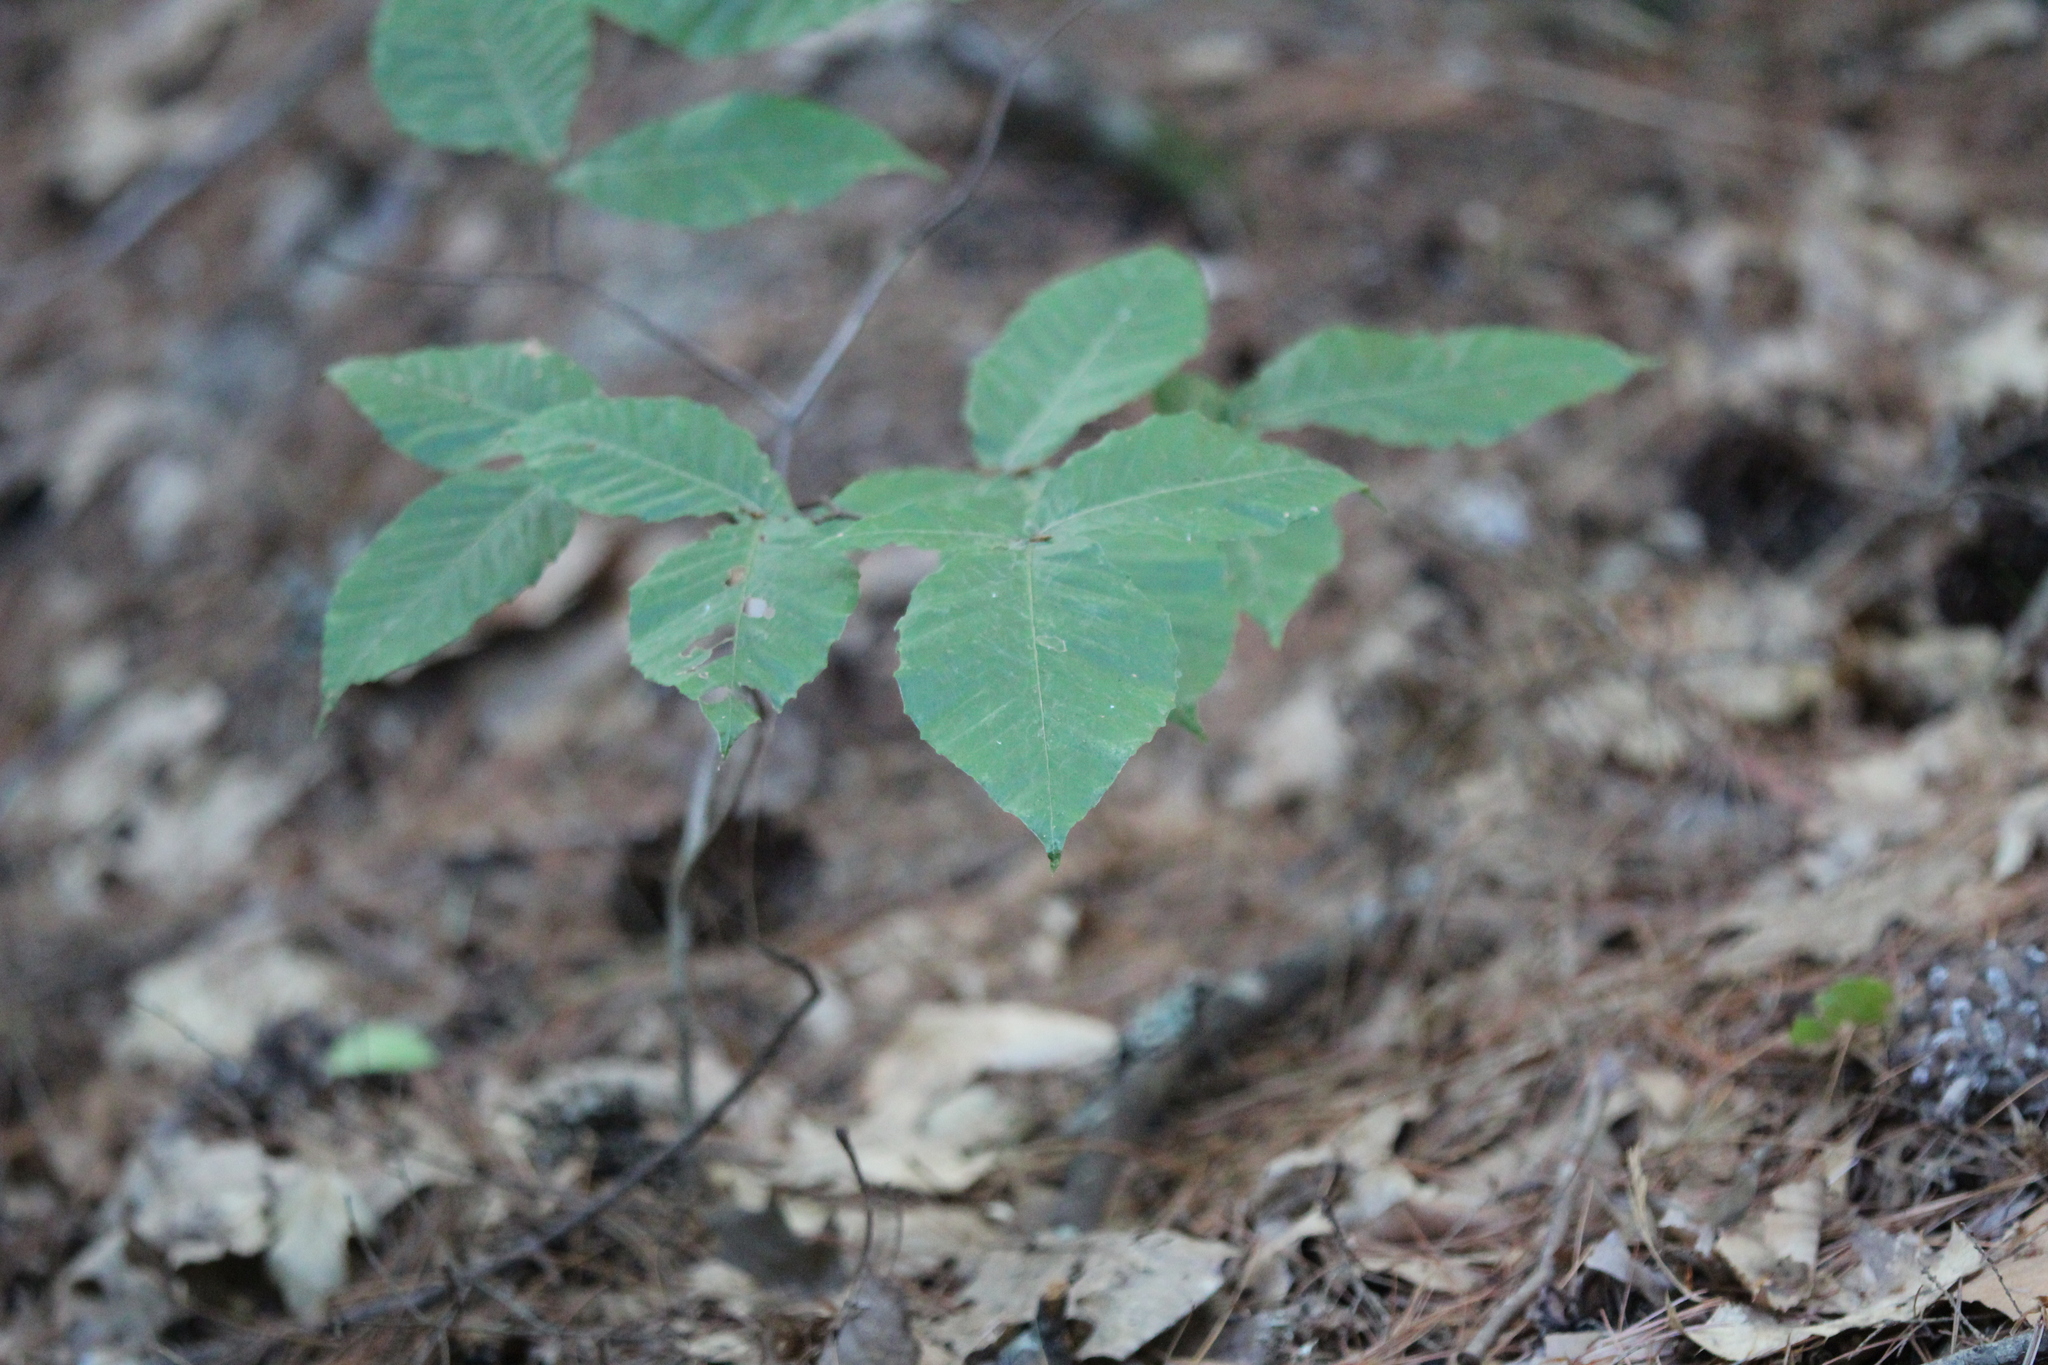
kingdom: Plantae
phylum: Tracheophyta
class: Magnoliopsida
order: Fagales
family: Fagaceae
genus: Fagus
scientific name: Fagus grandifolia
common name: American beech
